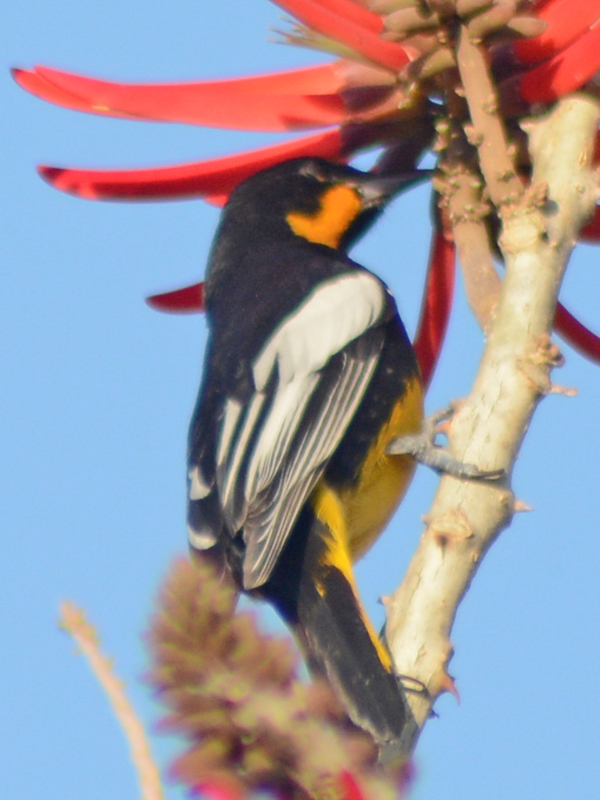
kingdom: Animalia
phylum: Chordata
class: Aves
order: Passeriformes
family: Icteridae
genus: Icterus
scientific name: Icterus abeillei
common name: Black-backed oriole
